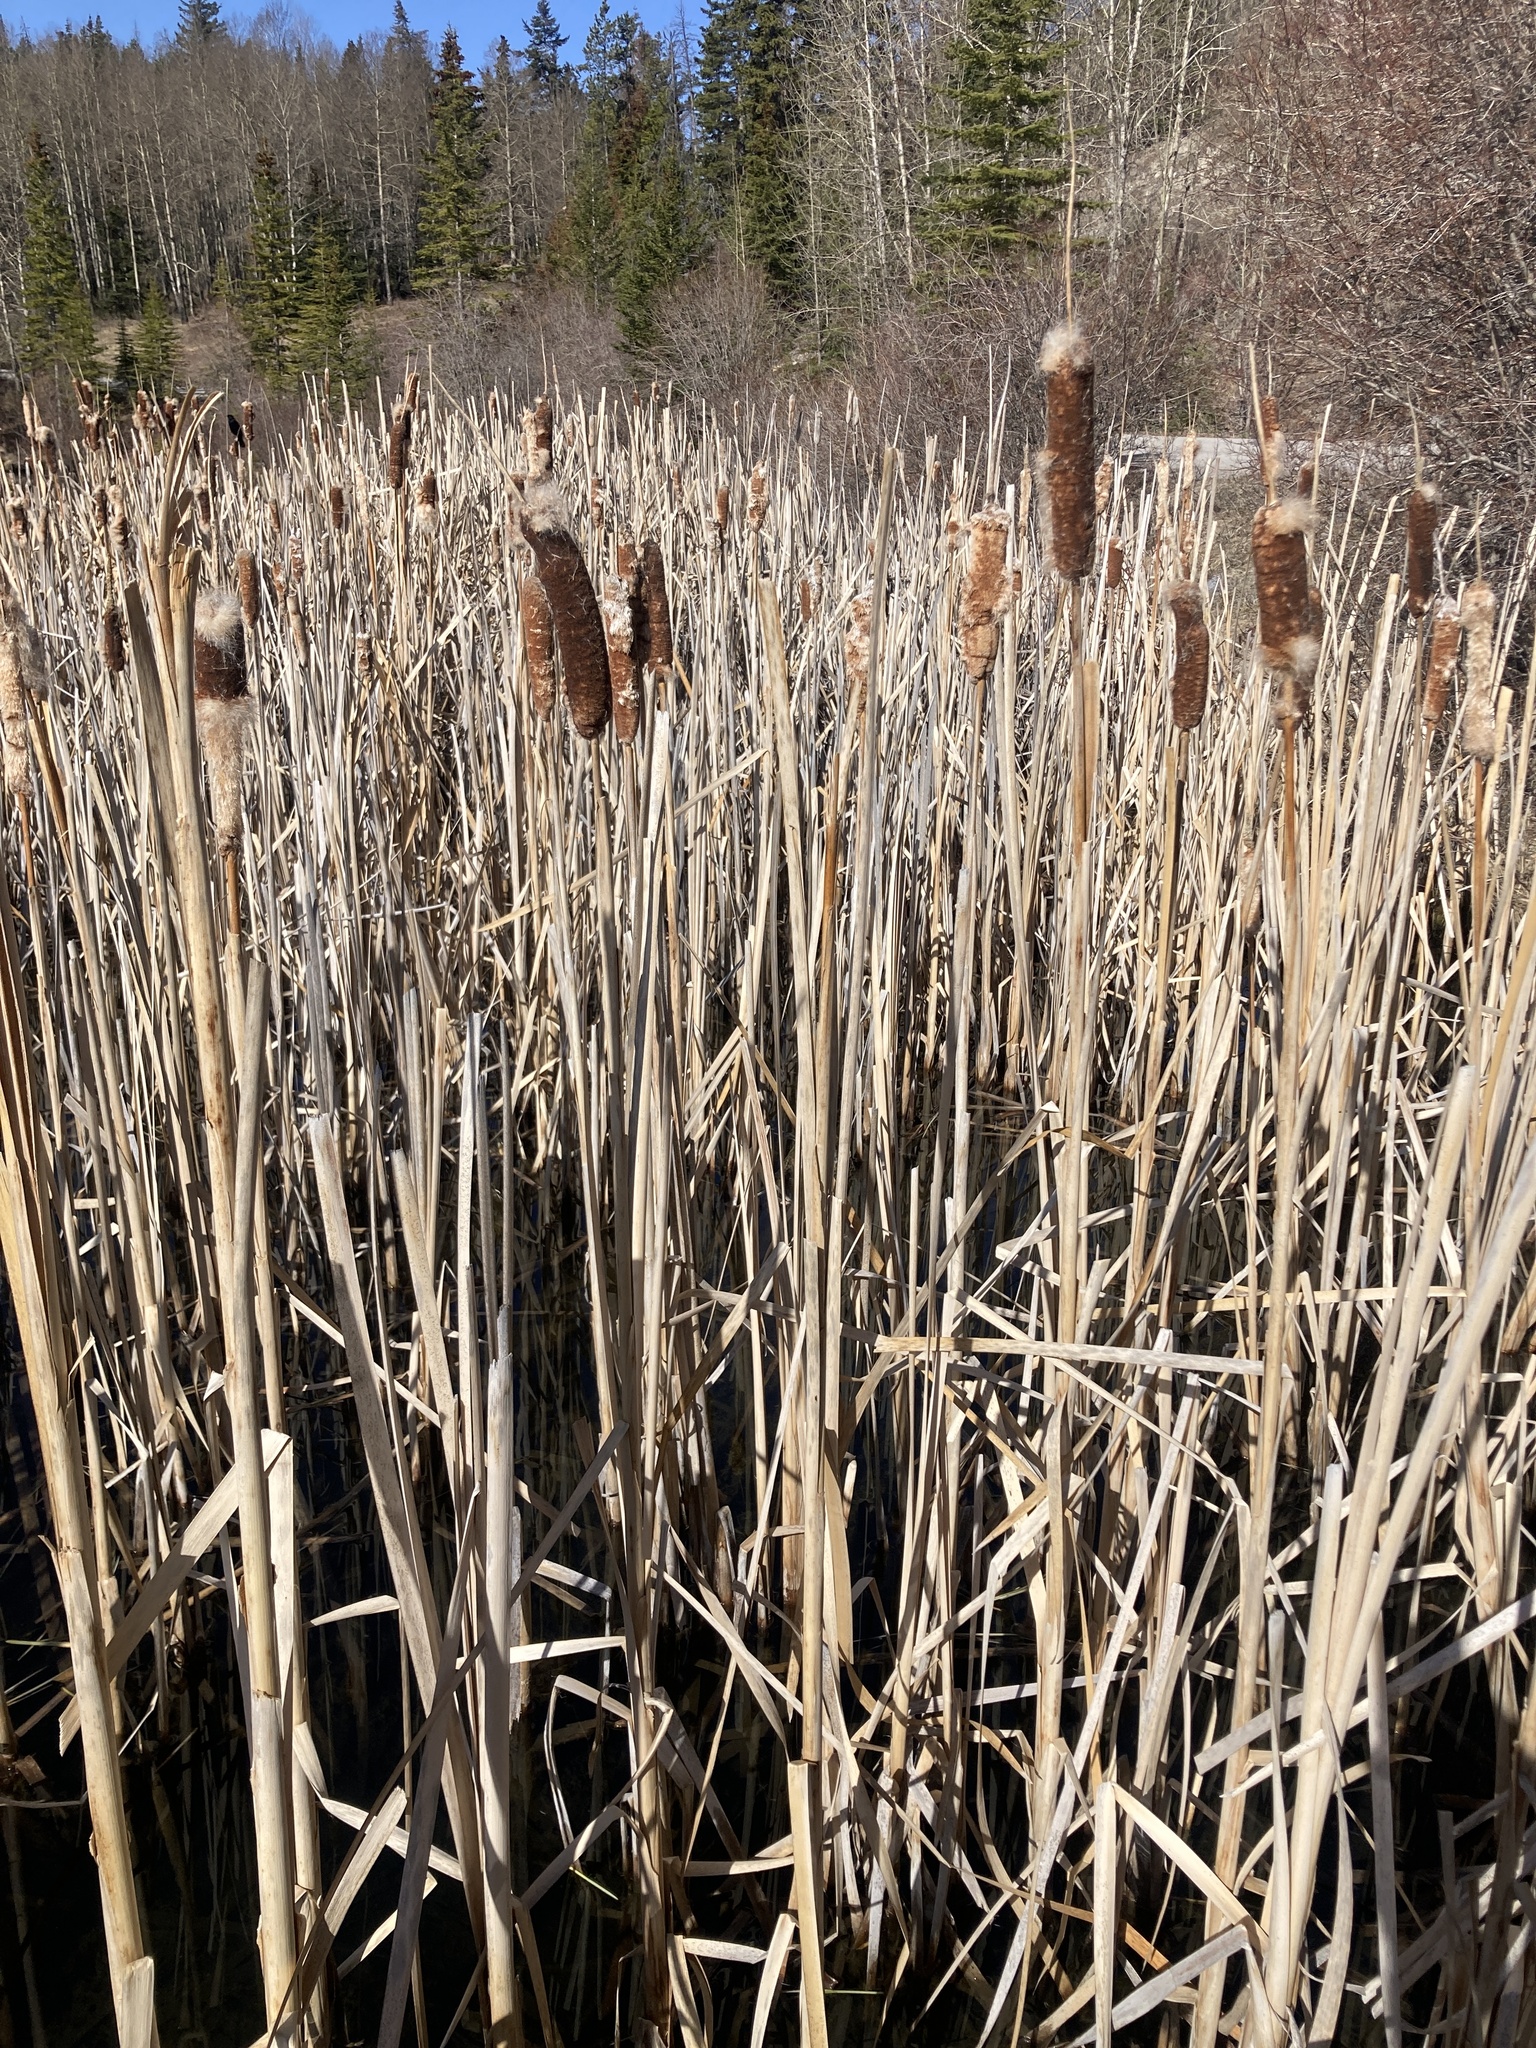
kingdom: Plantae
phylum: Tracheophyta
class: Liliopsida
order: Poales
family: Typhaceae
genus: Typha
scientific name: Typha latifolia
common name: Broadleaf cattail
